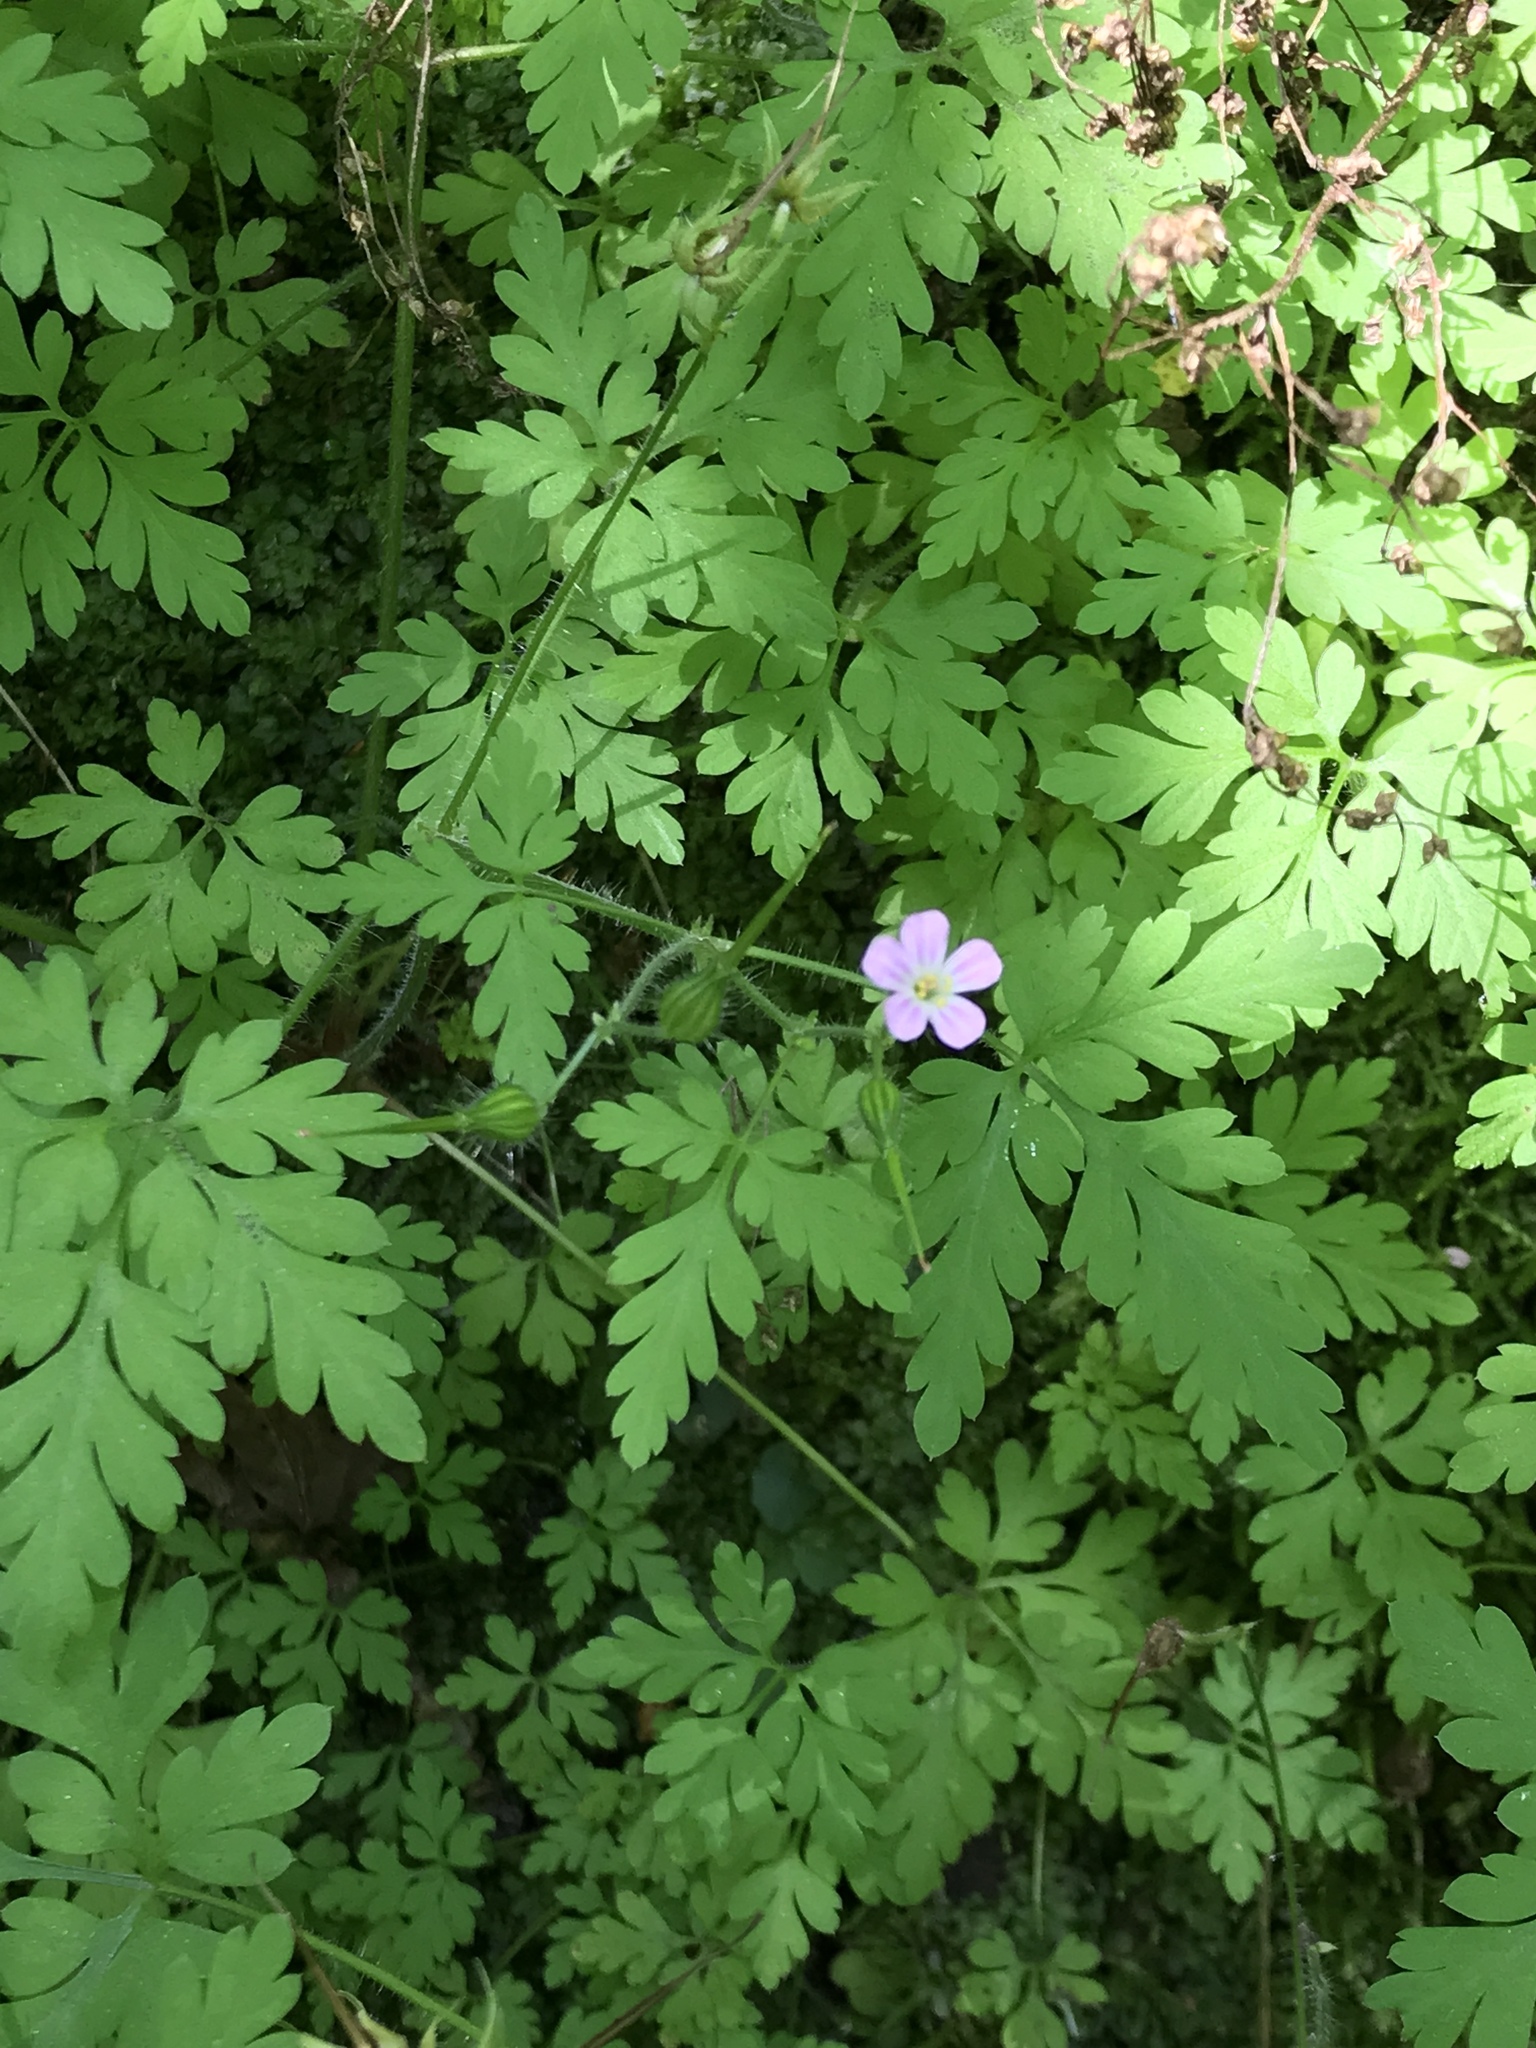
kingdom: Plantae
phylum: Tracheophyta
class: Magnoliopsida
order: Geraniales
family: Geraniaceae
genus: Geranium
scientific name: Geranium robertianum
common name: Herb-robert
